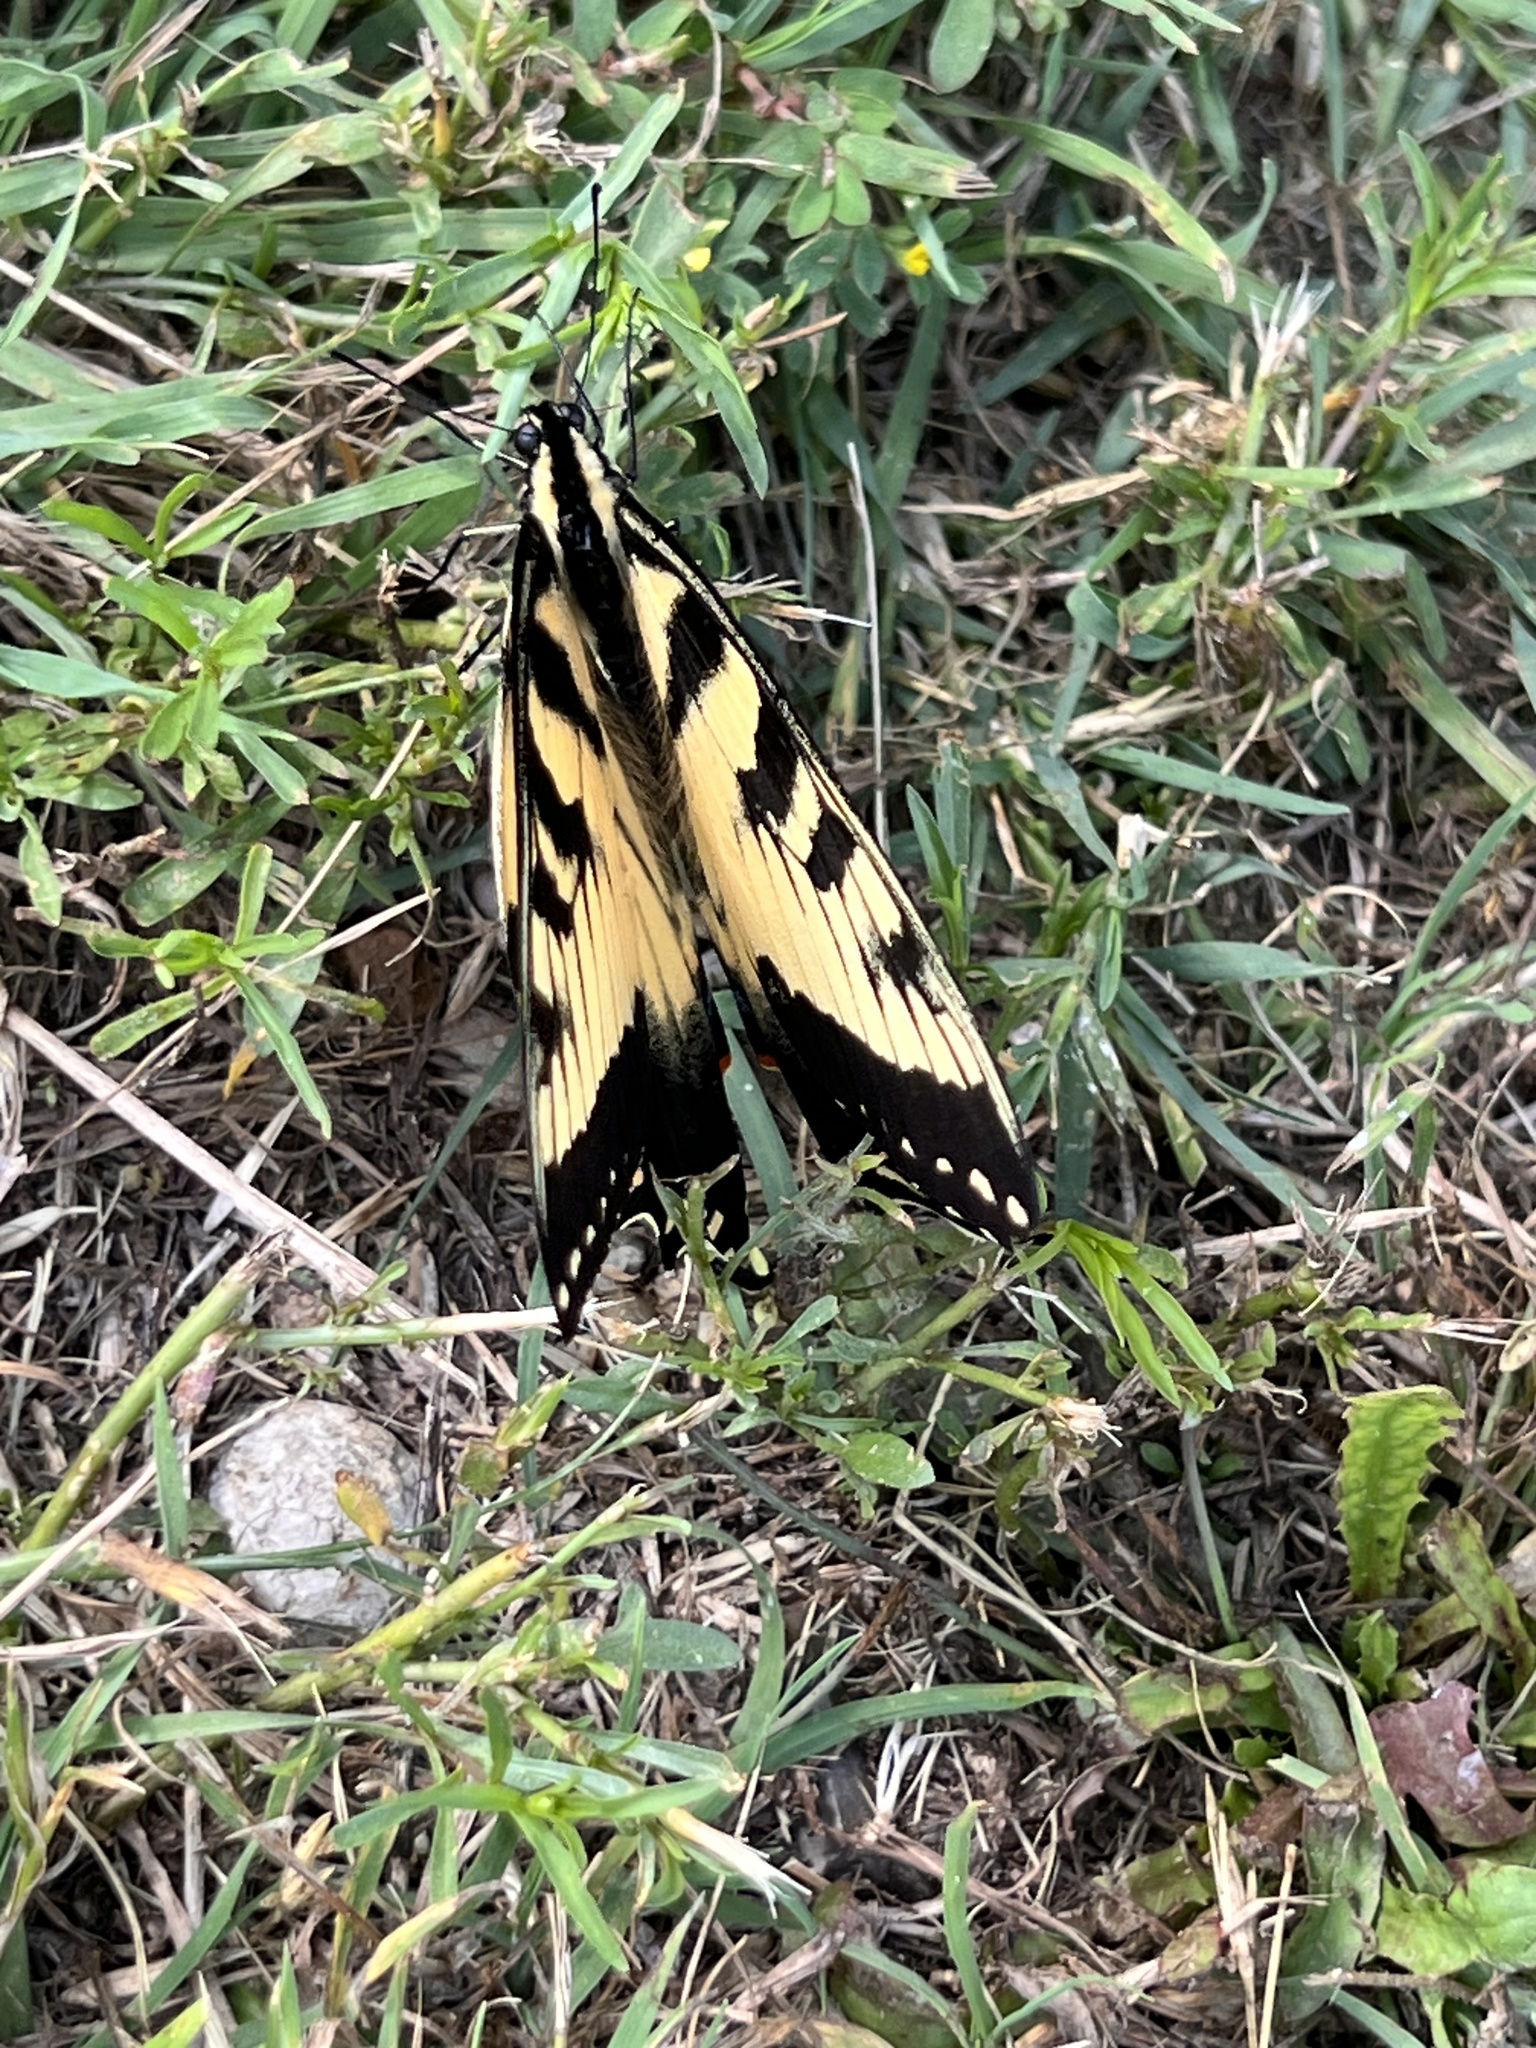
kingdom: Animalia
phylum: Arthropoda
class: Insecta
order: Lepidoptera
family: Papilionidae
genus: Papilio
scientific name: Papilio glaucus
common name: Tiger swallowtail
